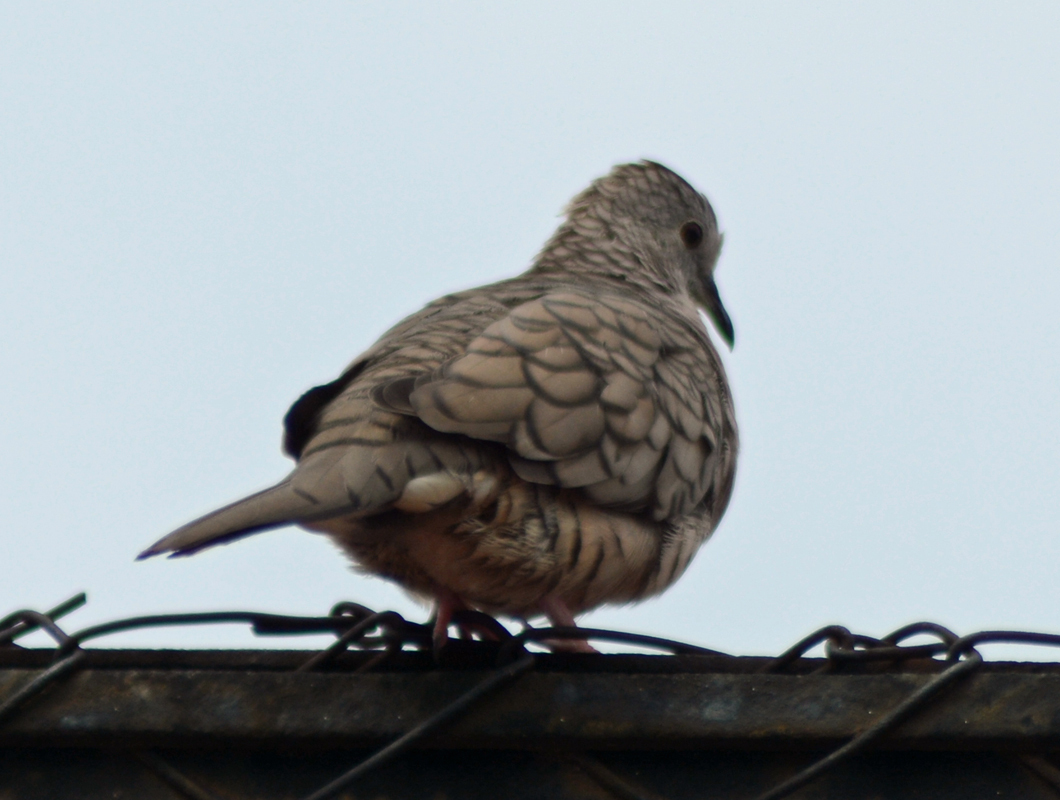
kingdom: Animalia
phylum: Chordata
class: Aves
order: Columbiformes
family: Columbidae
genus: Columbina
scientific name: Columbina inca
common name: Inca dove
